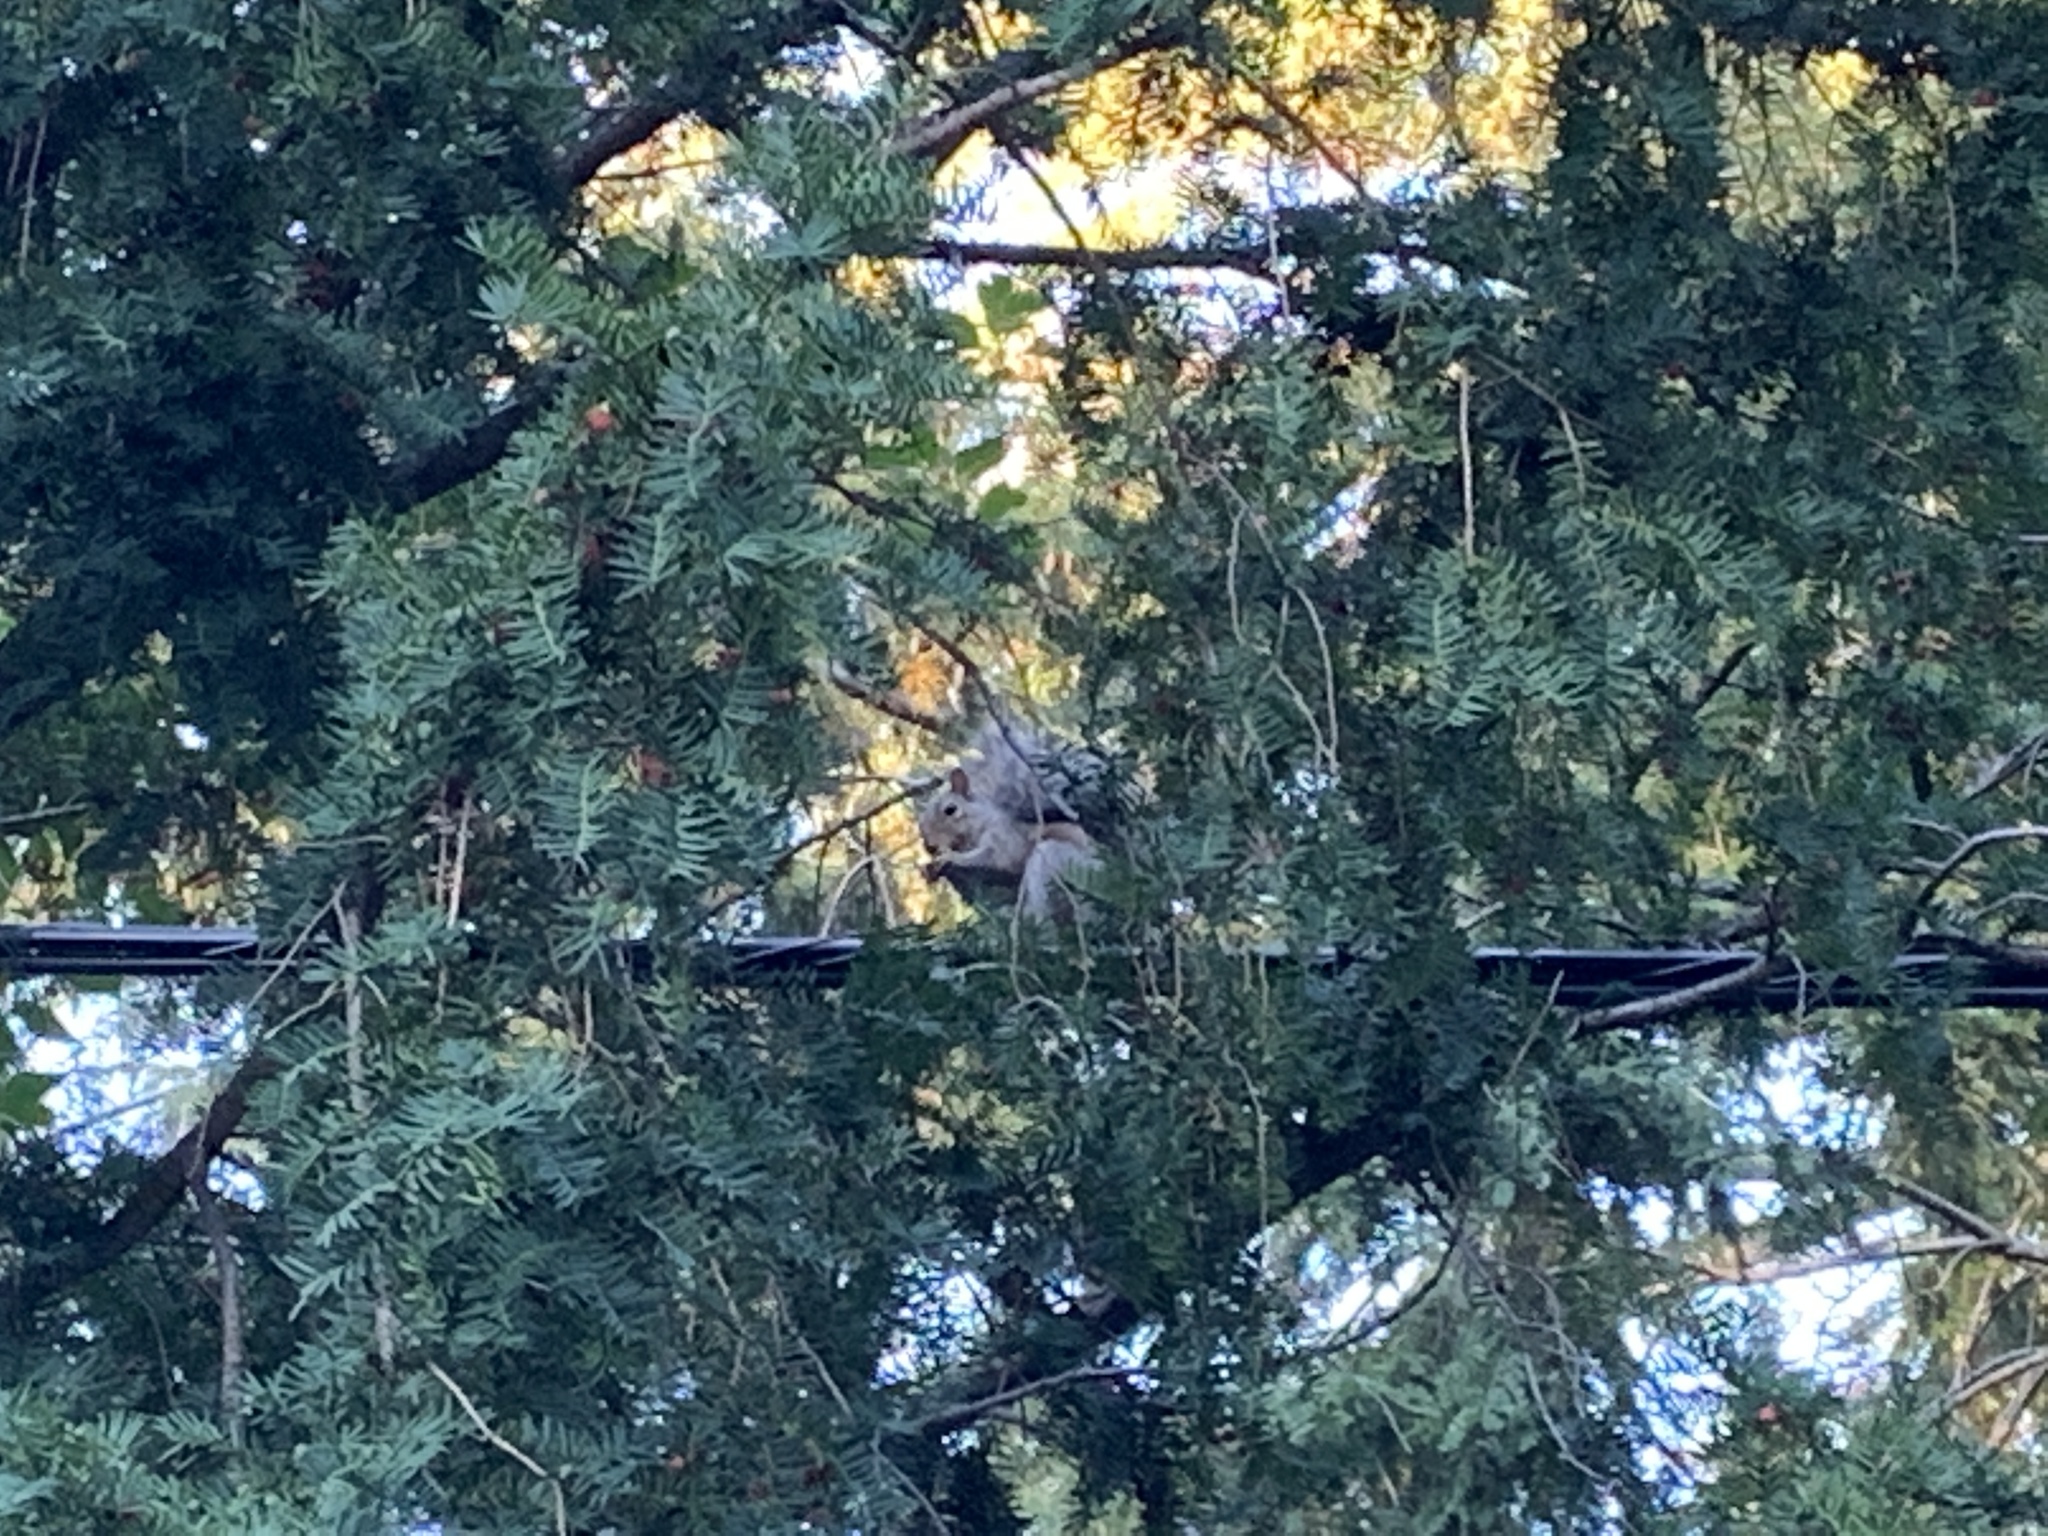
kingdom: Animalia
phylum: Chordata
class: Mammalia
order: Rodentia
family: Sciuridae
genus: Sciurus
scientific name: Sciurus carolinensis
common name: Eastern gray squirrel
